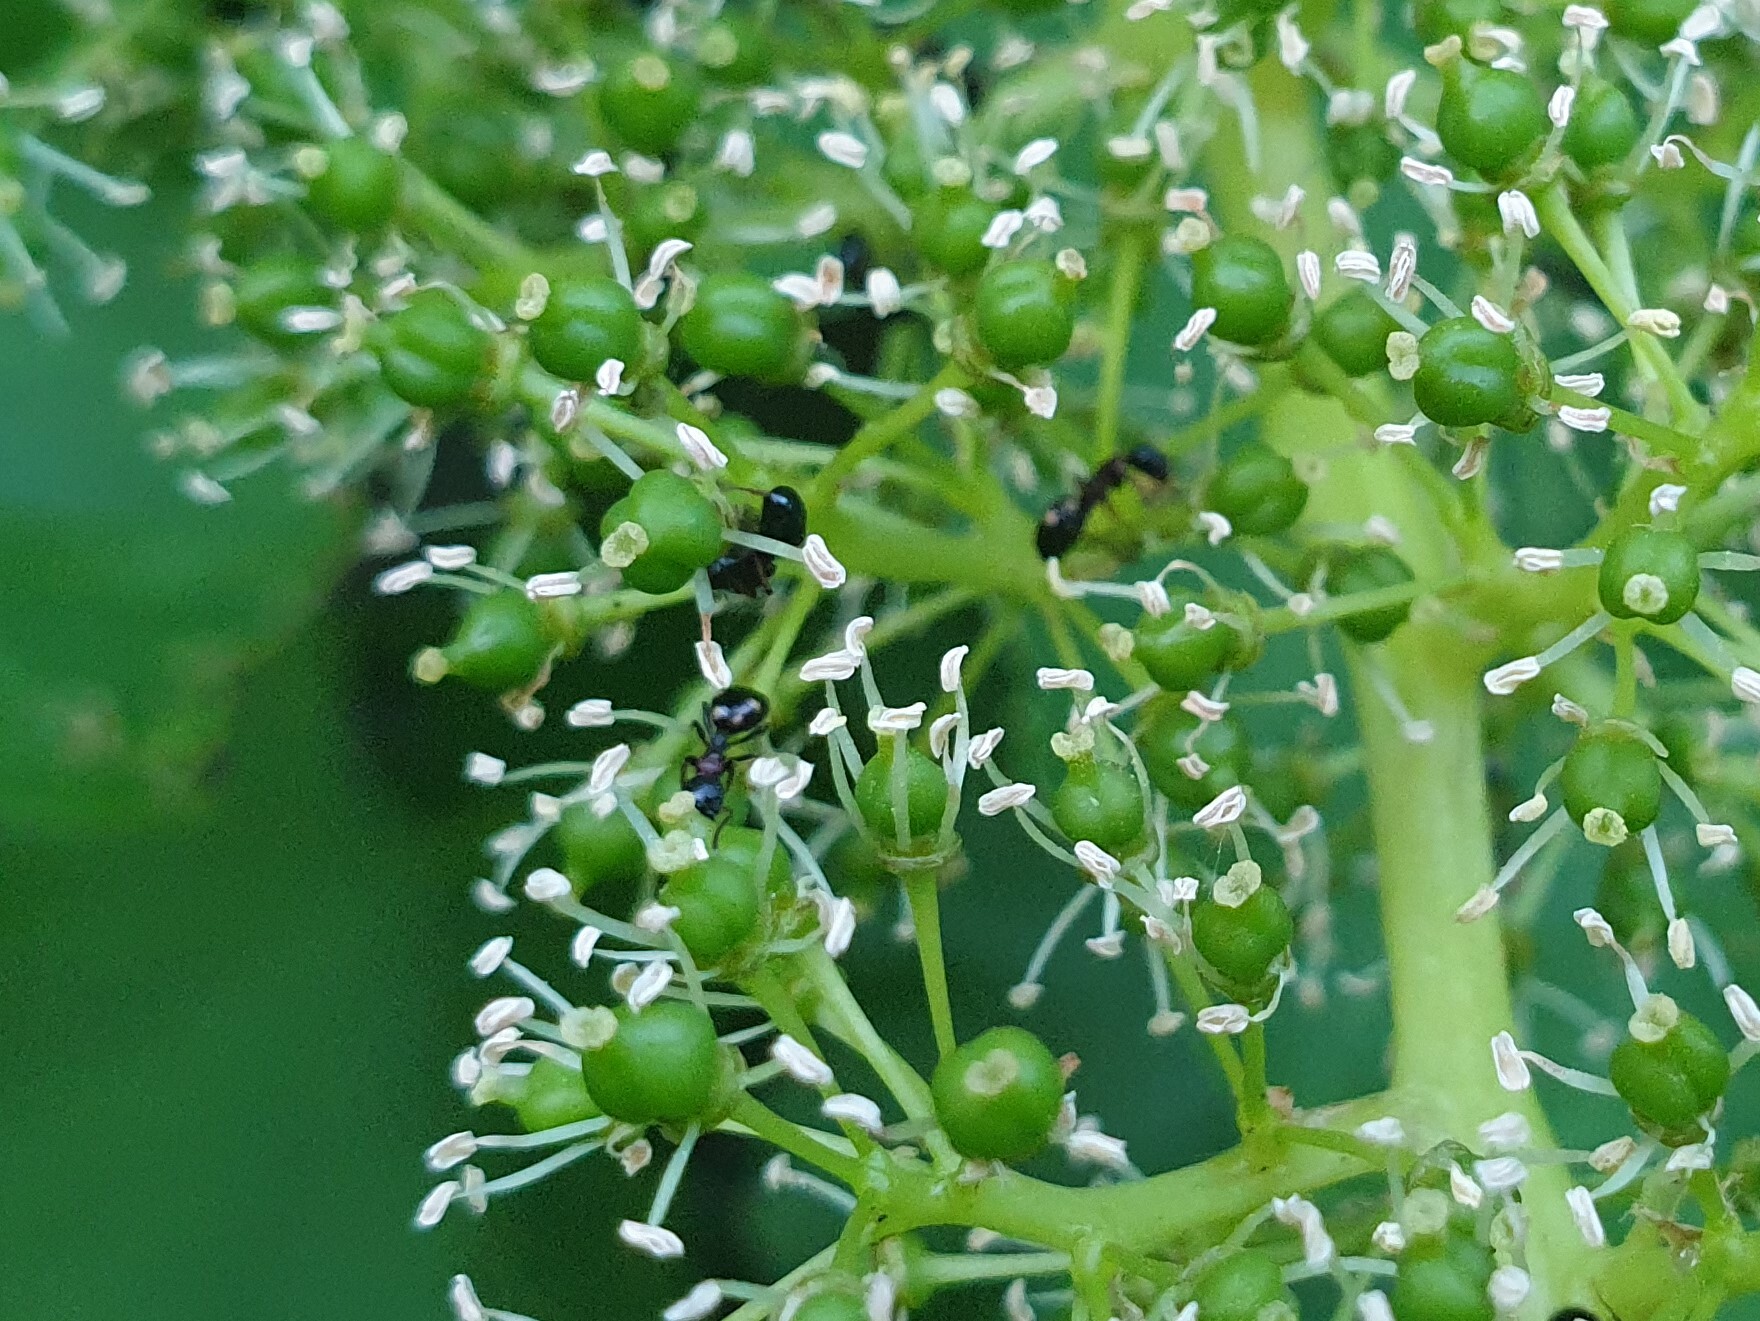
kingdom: Animalia
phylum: Arthropoda
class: Insecta
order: Hymenoptera
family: Formicidae
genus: Dolichoderus
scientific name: Dolichoderus quadripunctatus
